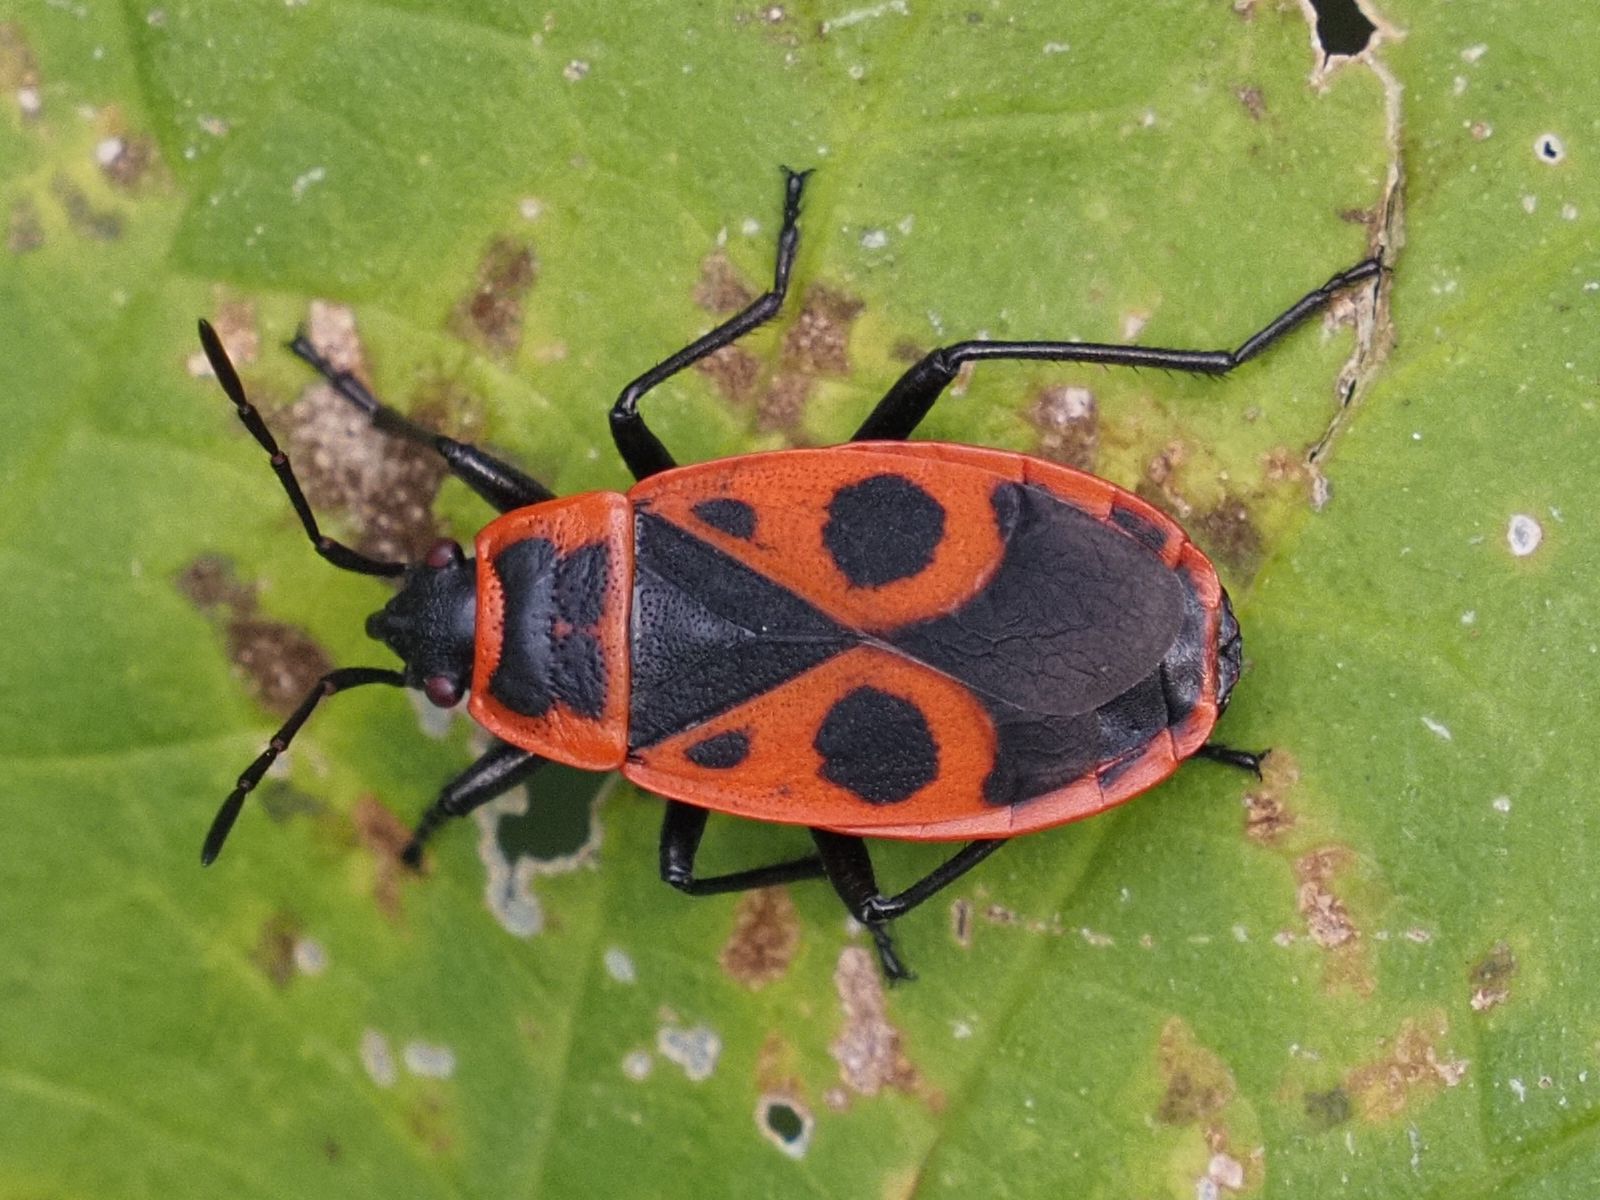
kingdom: Animalia
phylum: Arthropoda
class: Insecta
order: Hemiptera
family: Pyrrhocoridae
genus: Pyrrhocoris
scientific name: Pyrrhocoris apterus
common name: Firebug
